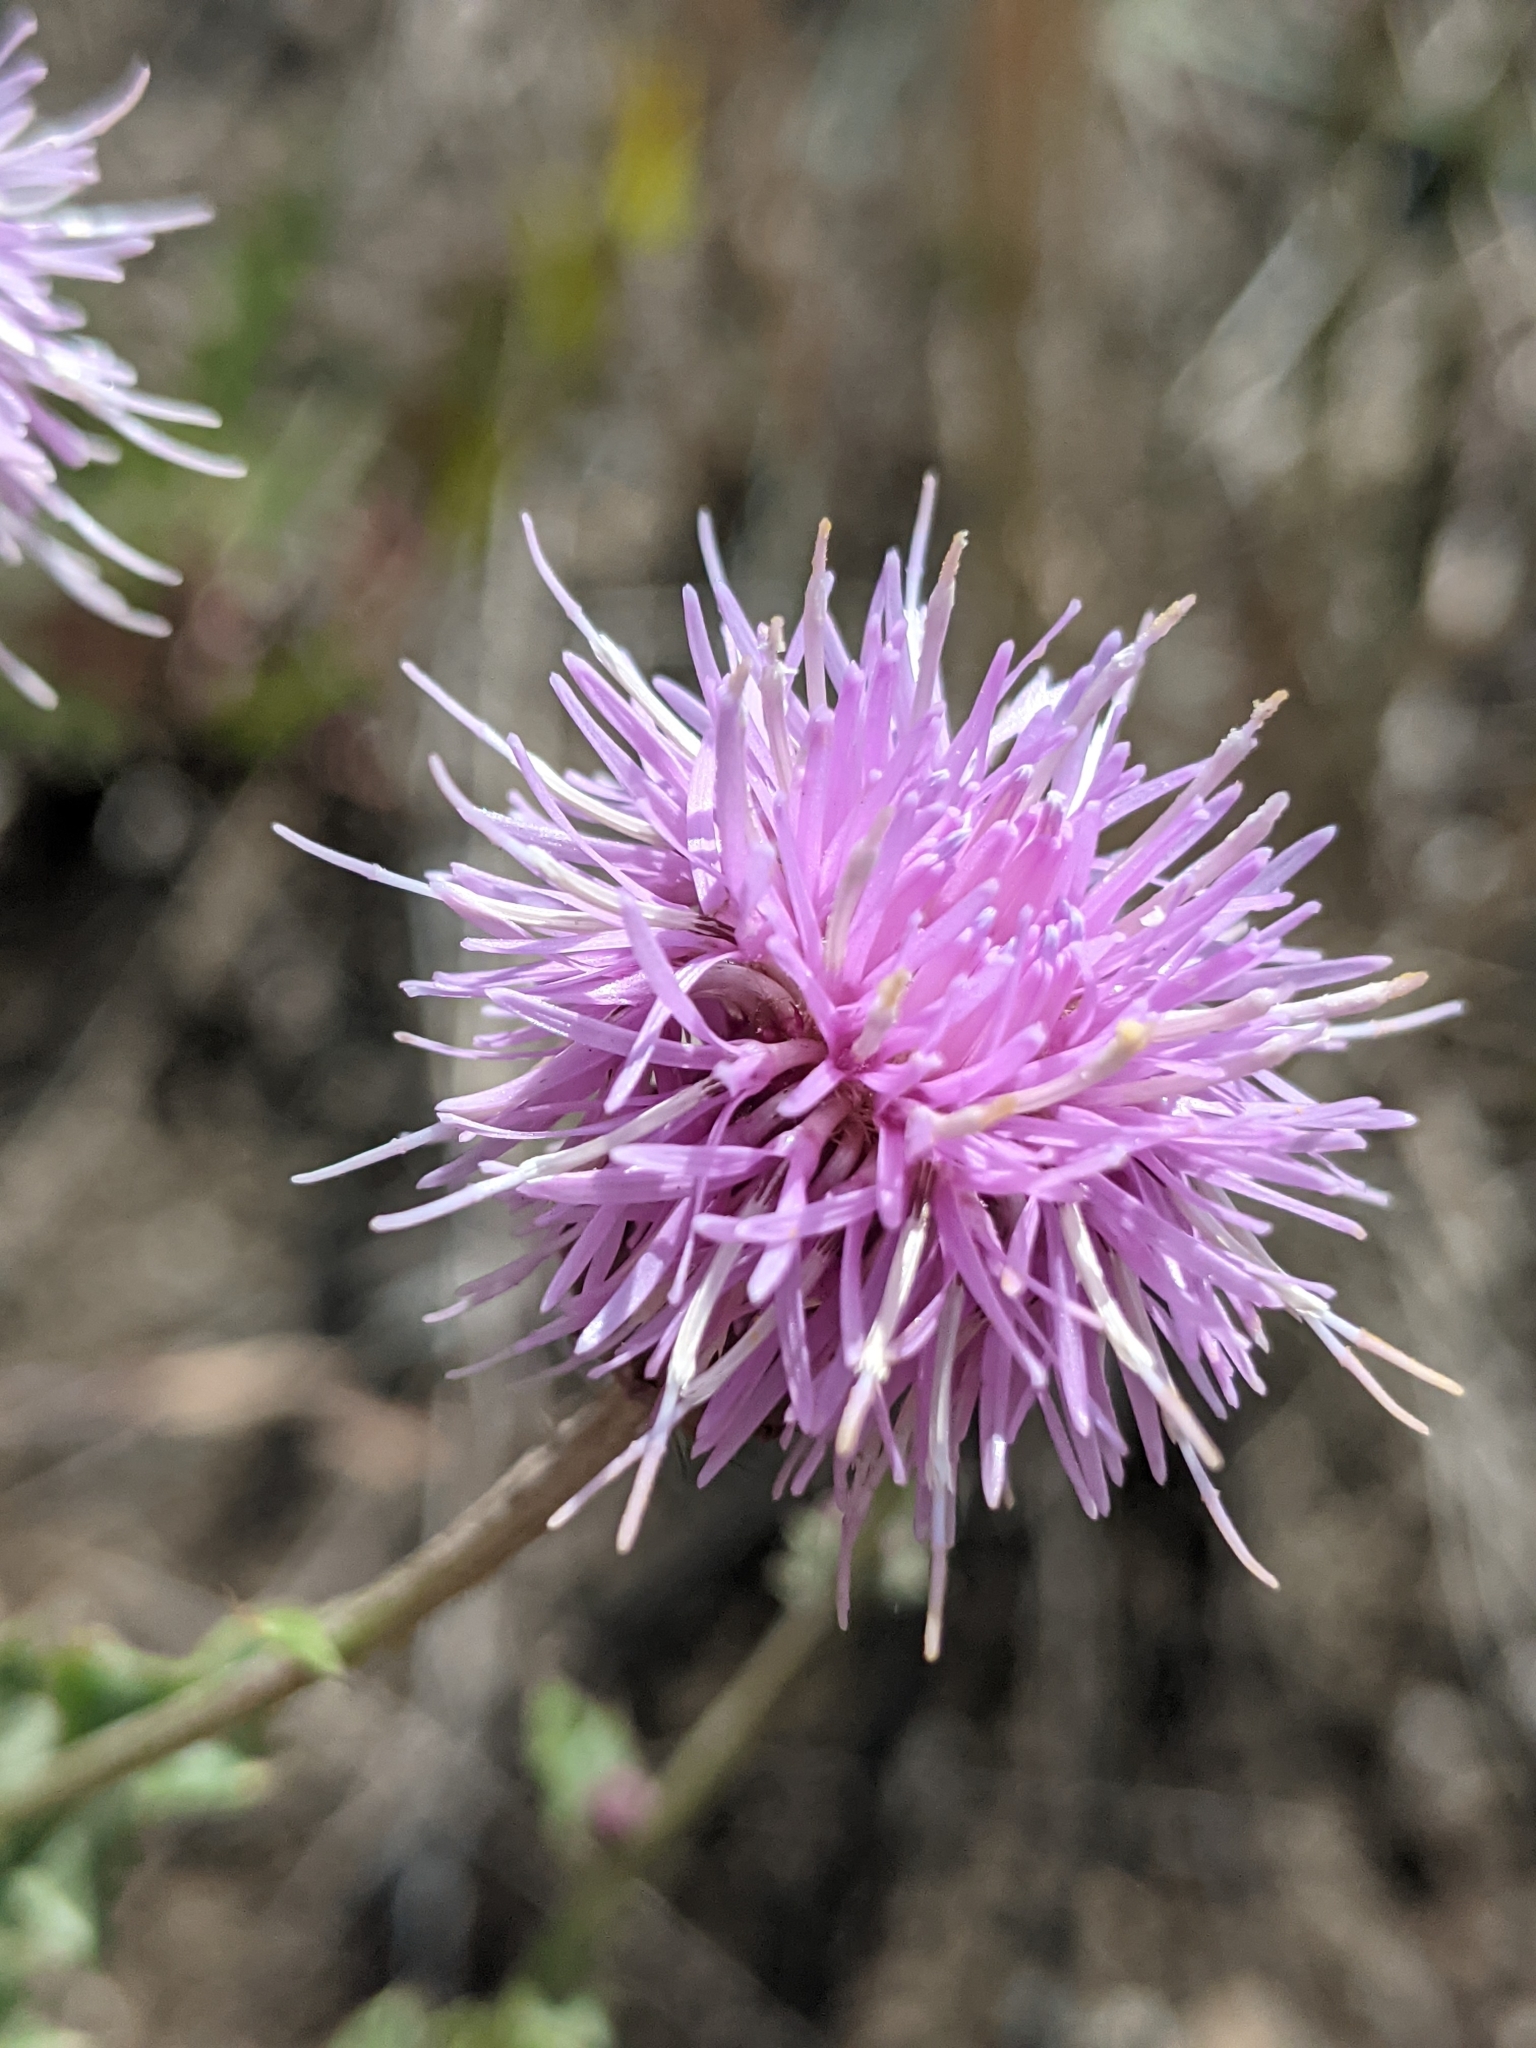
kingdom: Plantae
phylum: Tracheophyta
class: Magnoliopsida
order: Asterales
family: Asteraceae
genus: Cirsium
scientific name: Cirsium arvense
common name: Creeping thistle
